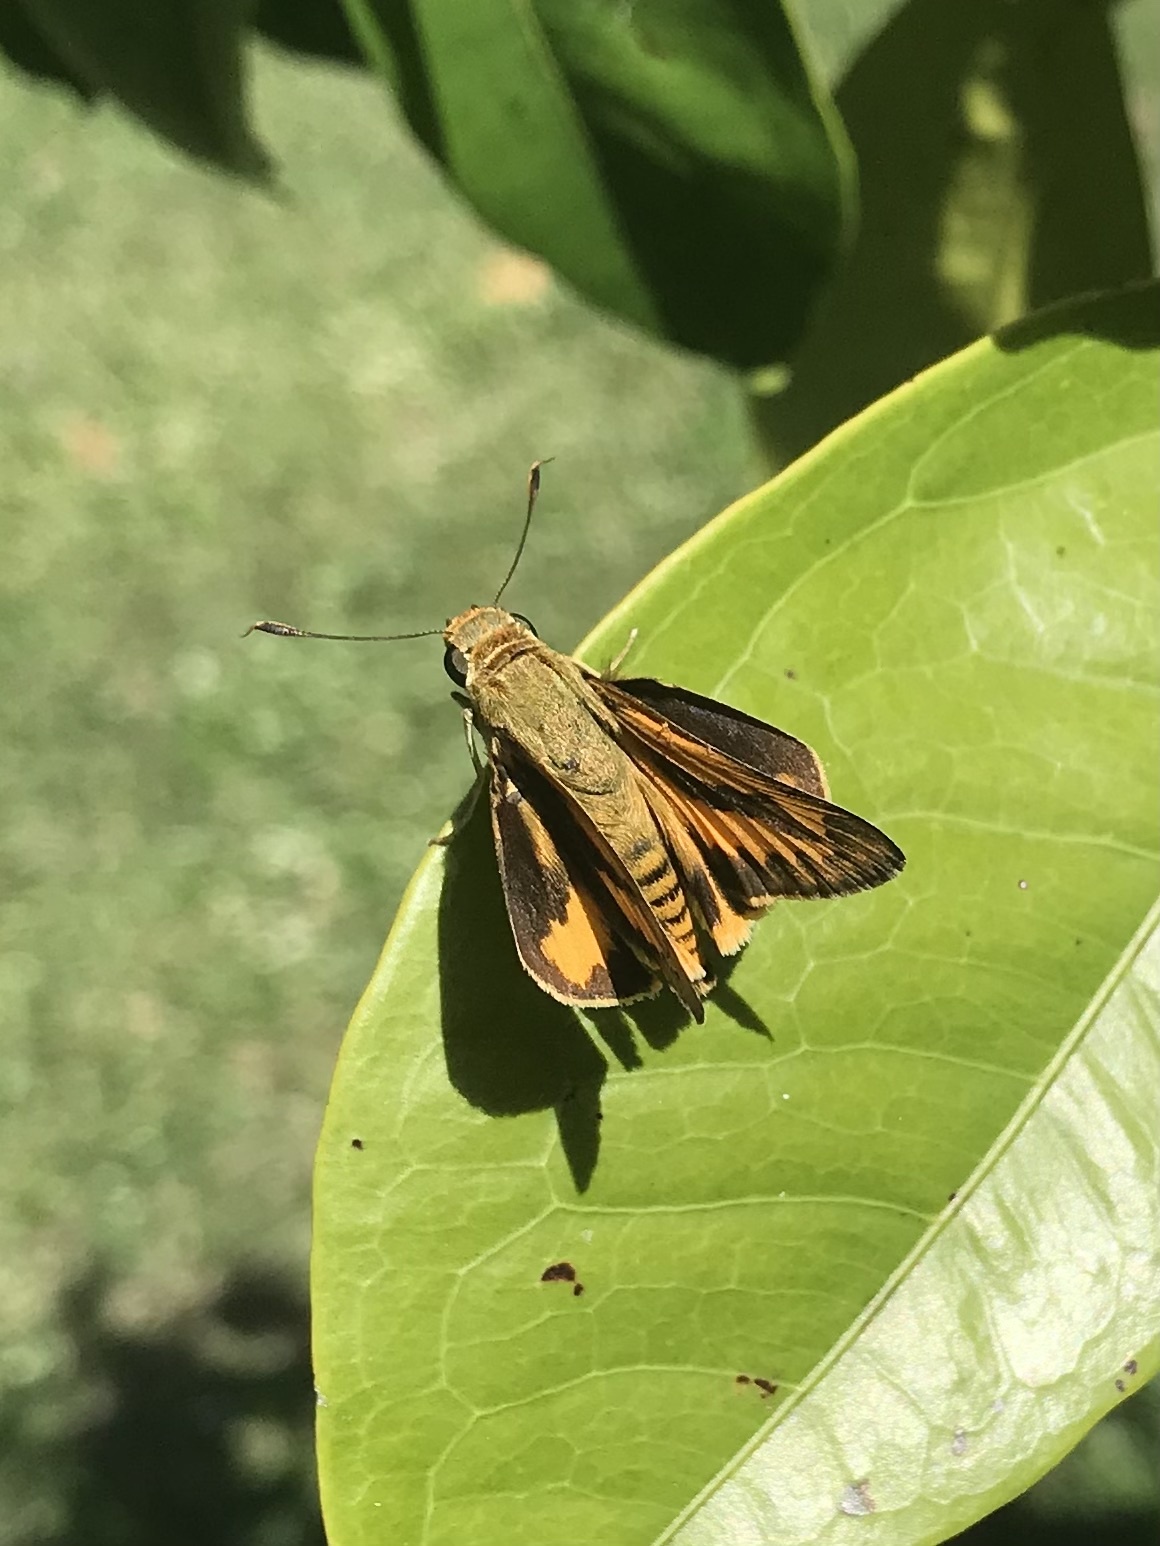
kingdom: Animalia
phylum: Arthropoda
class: Insecta
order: Lepidoptera
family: Hesperiidae
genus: Cephrenes
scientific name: Cephrenes trichopepla
